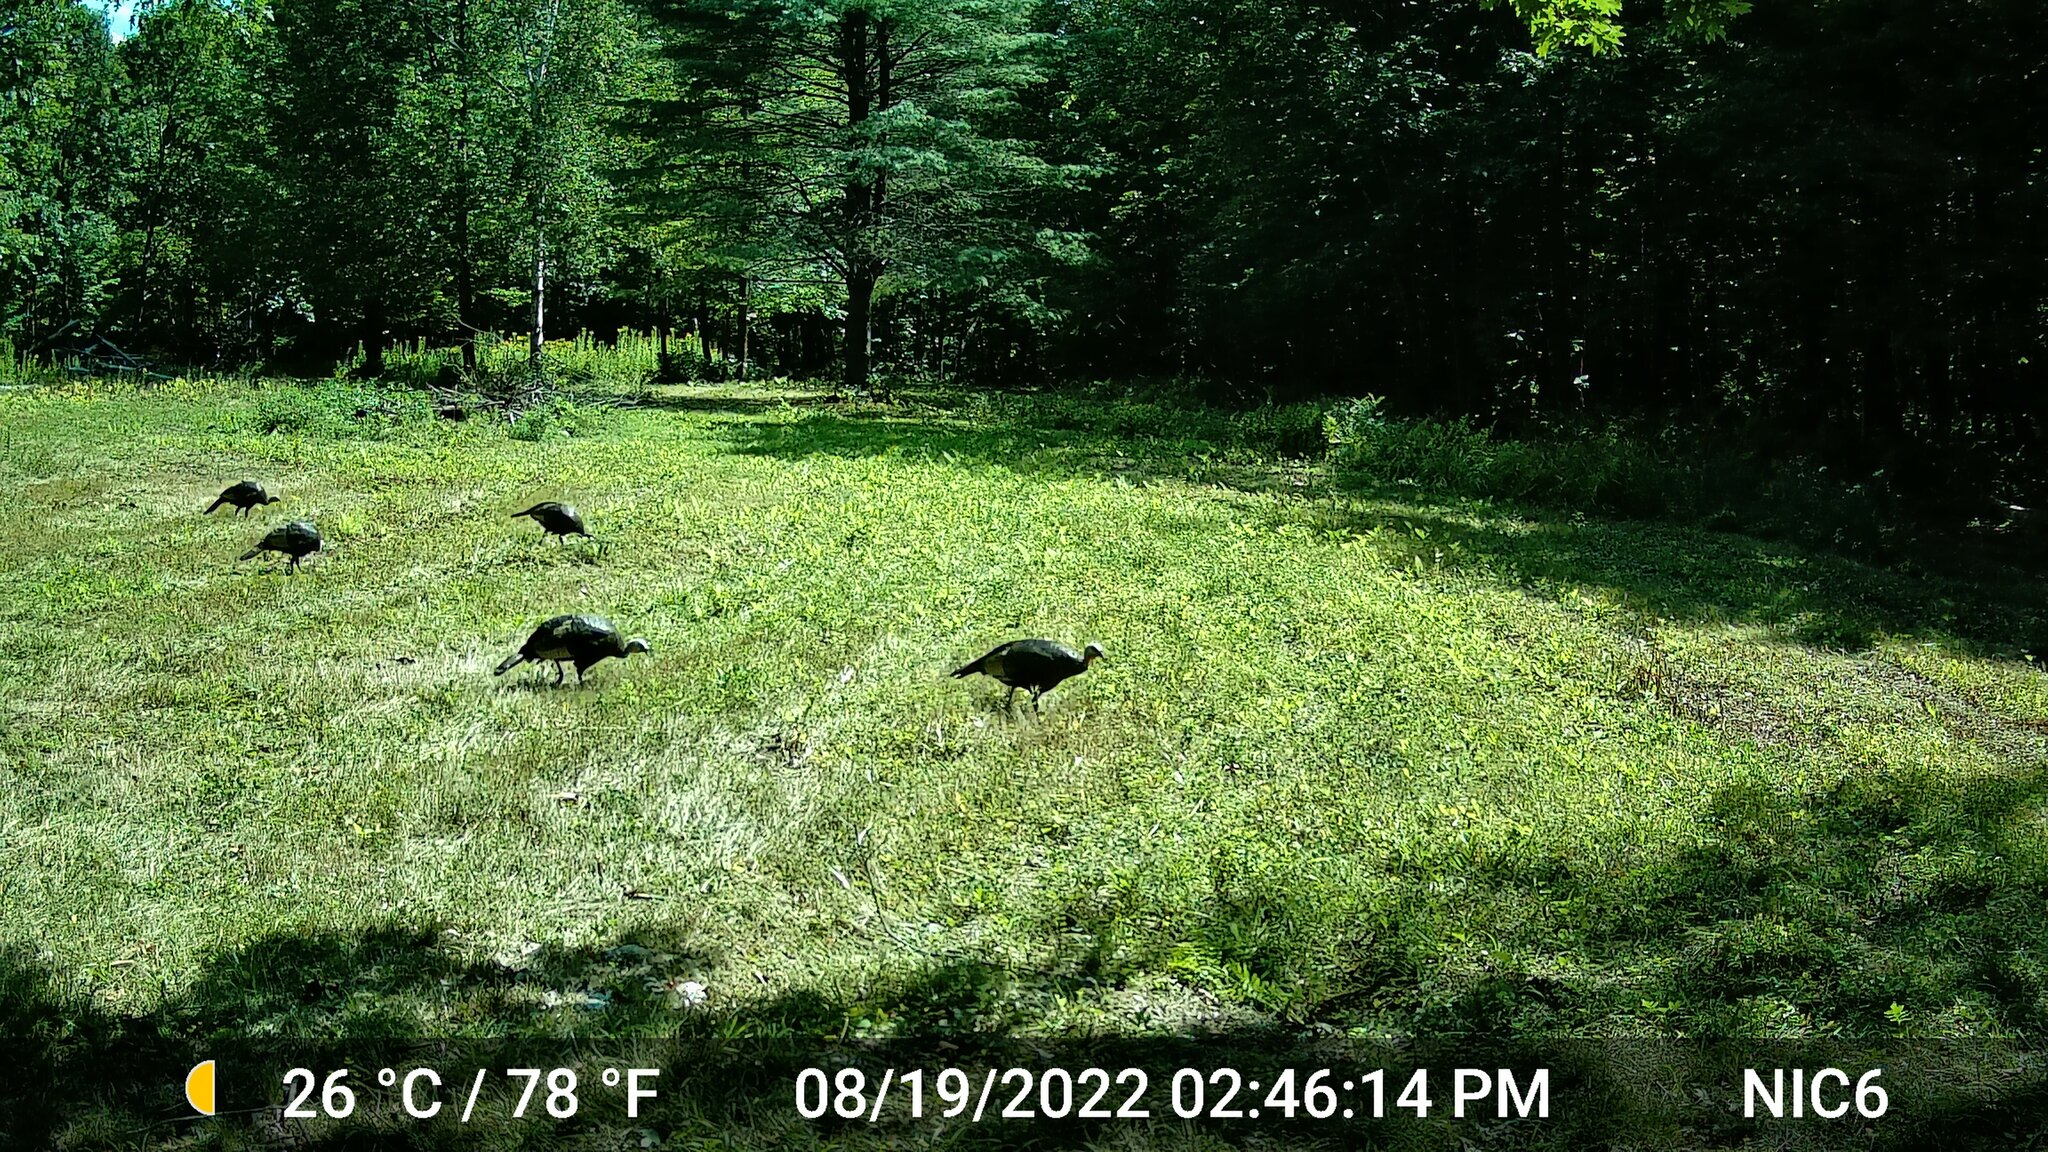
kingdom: Animalia
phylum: Chordata
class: Aves
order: Galliformes
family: Phasianidae
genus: Meleagris
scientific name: Meleagris gallopavo
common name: Wild turkey
